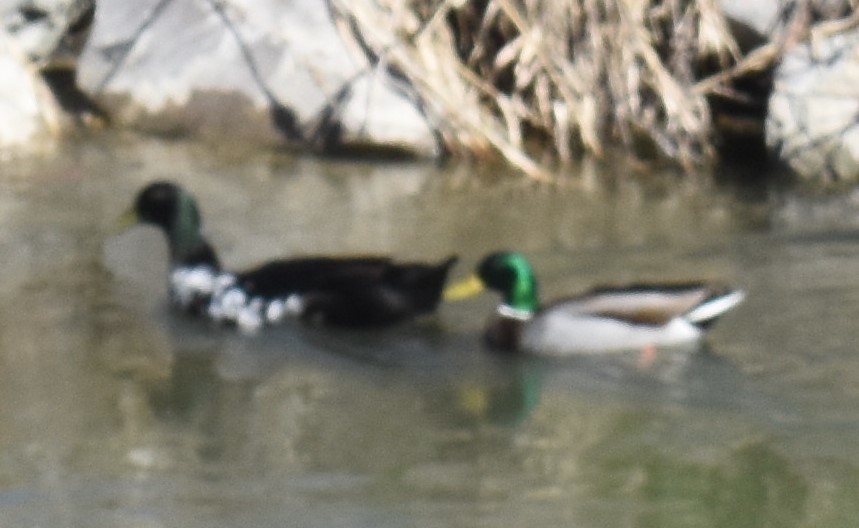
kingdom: Animalia
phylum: Chordata
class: Aves
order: Anseriformes
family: Anatidae
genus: Anas
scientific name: Anas platyrhynchos
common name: Mallard
